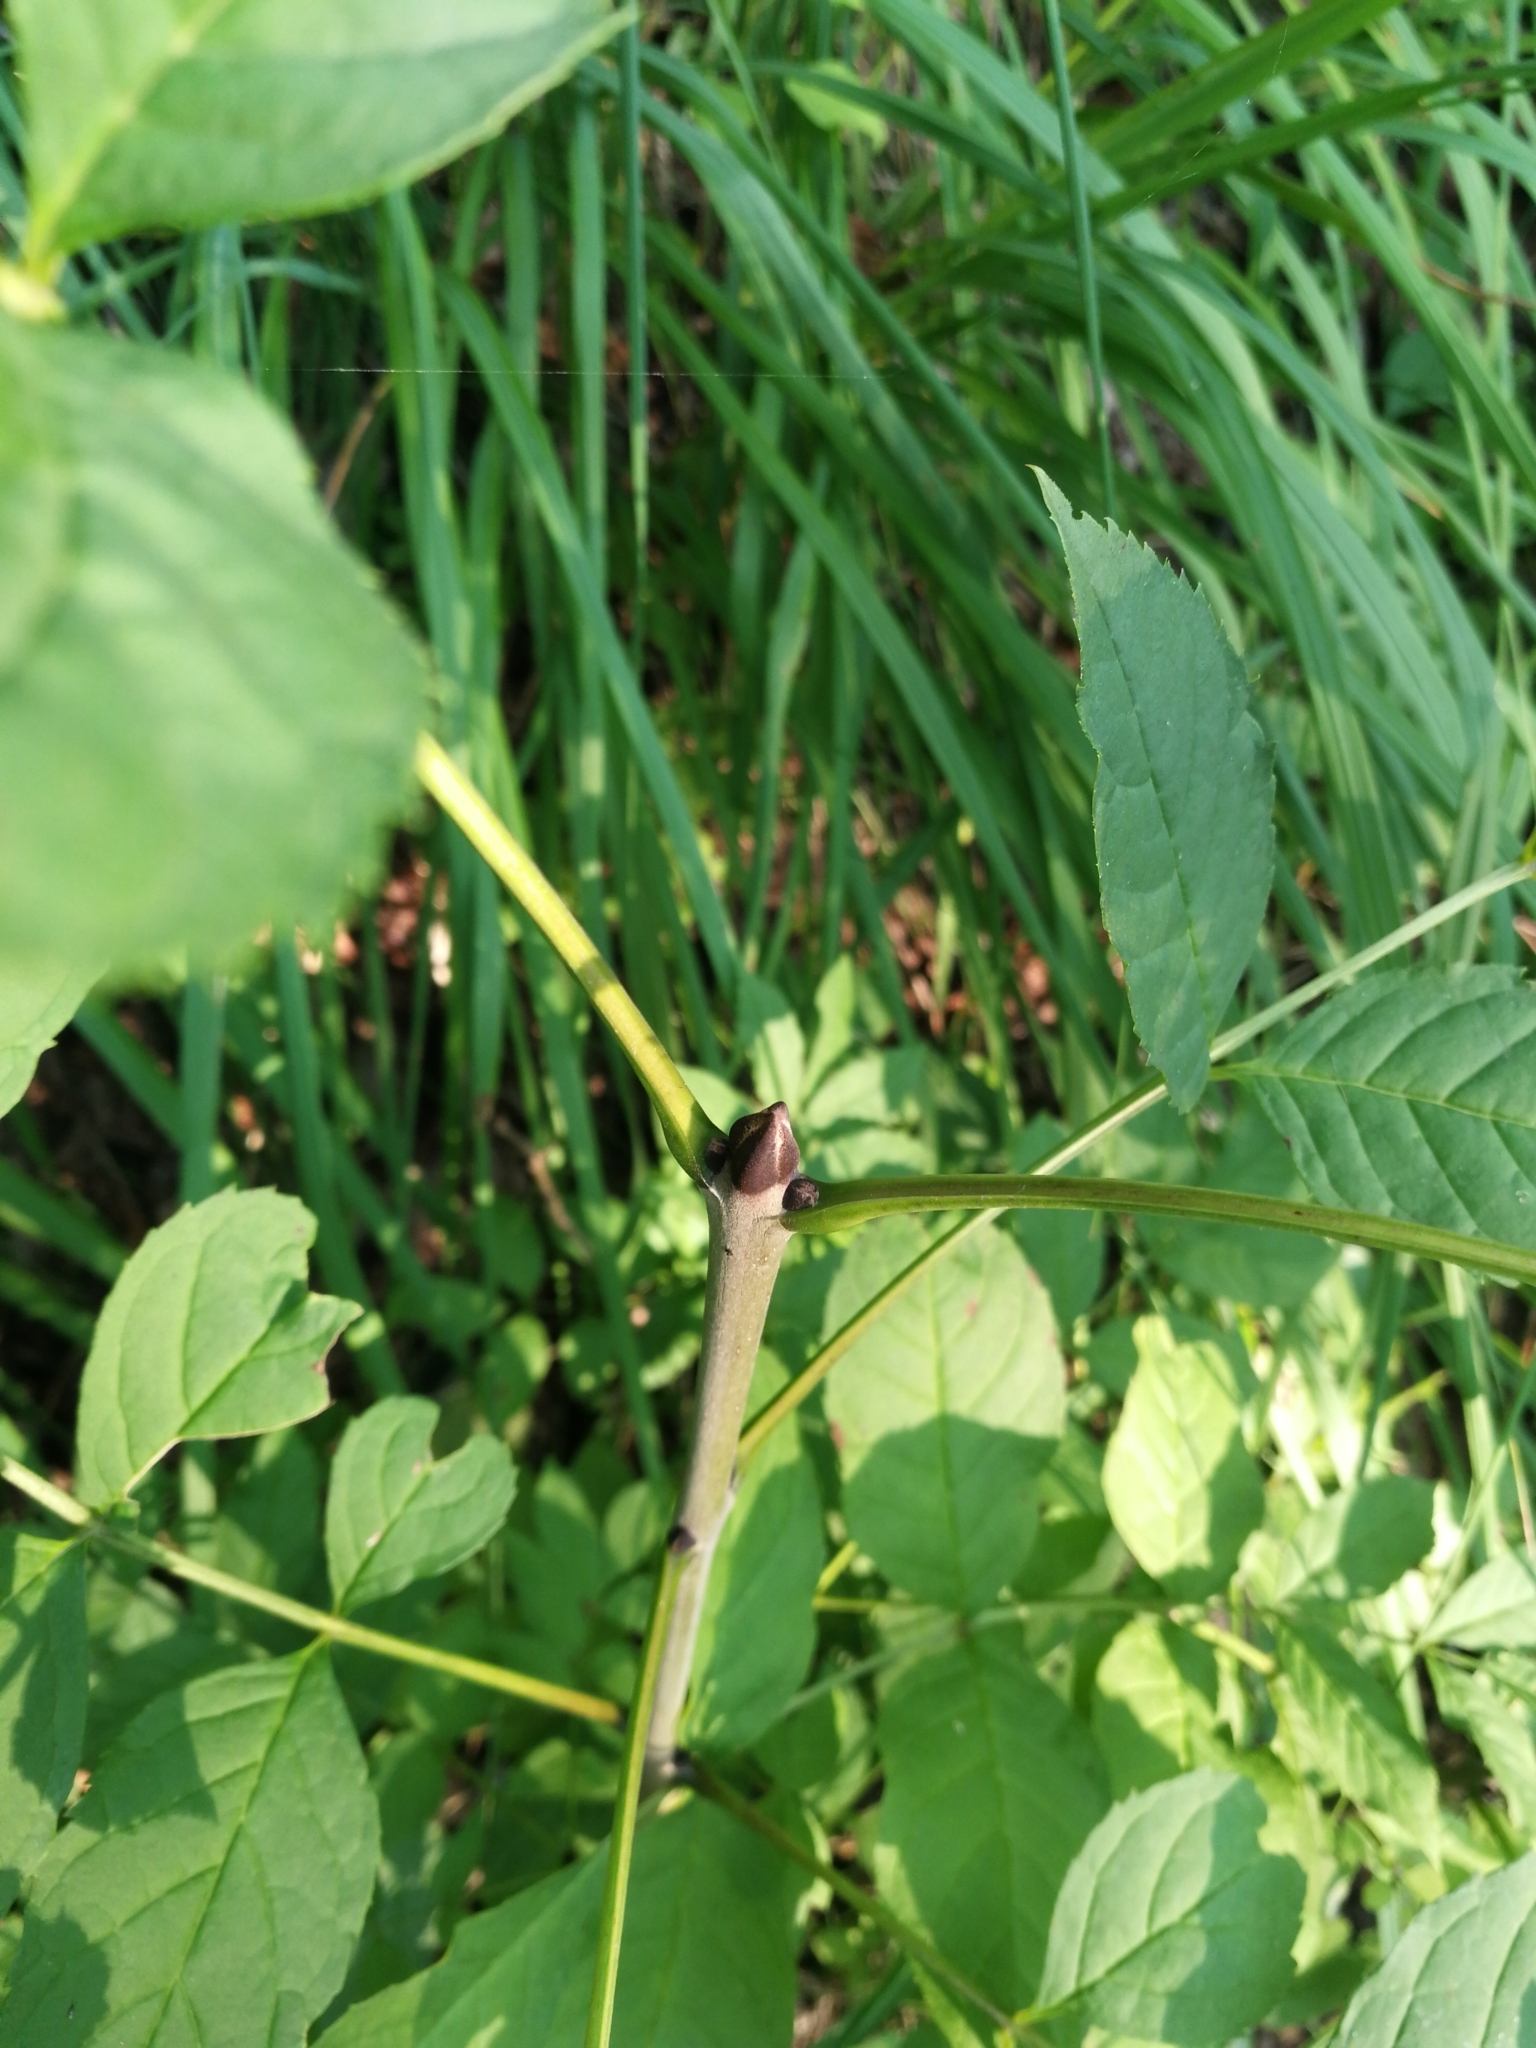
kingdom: Plantae
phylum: Tracheophyta
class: Magnoliopsida
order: Lamiales
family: Oleaceae
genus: Fraxinus
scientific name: Fraxinus excelsior
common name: European ash
